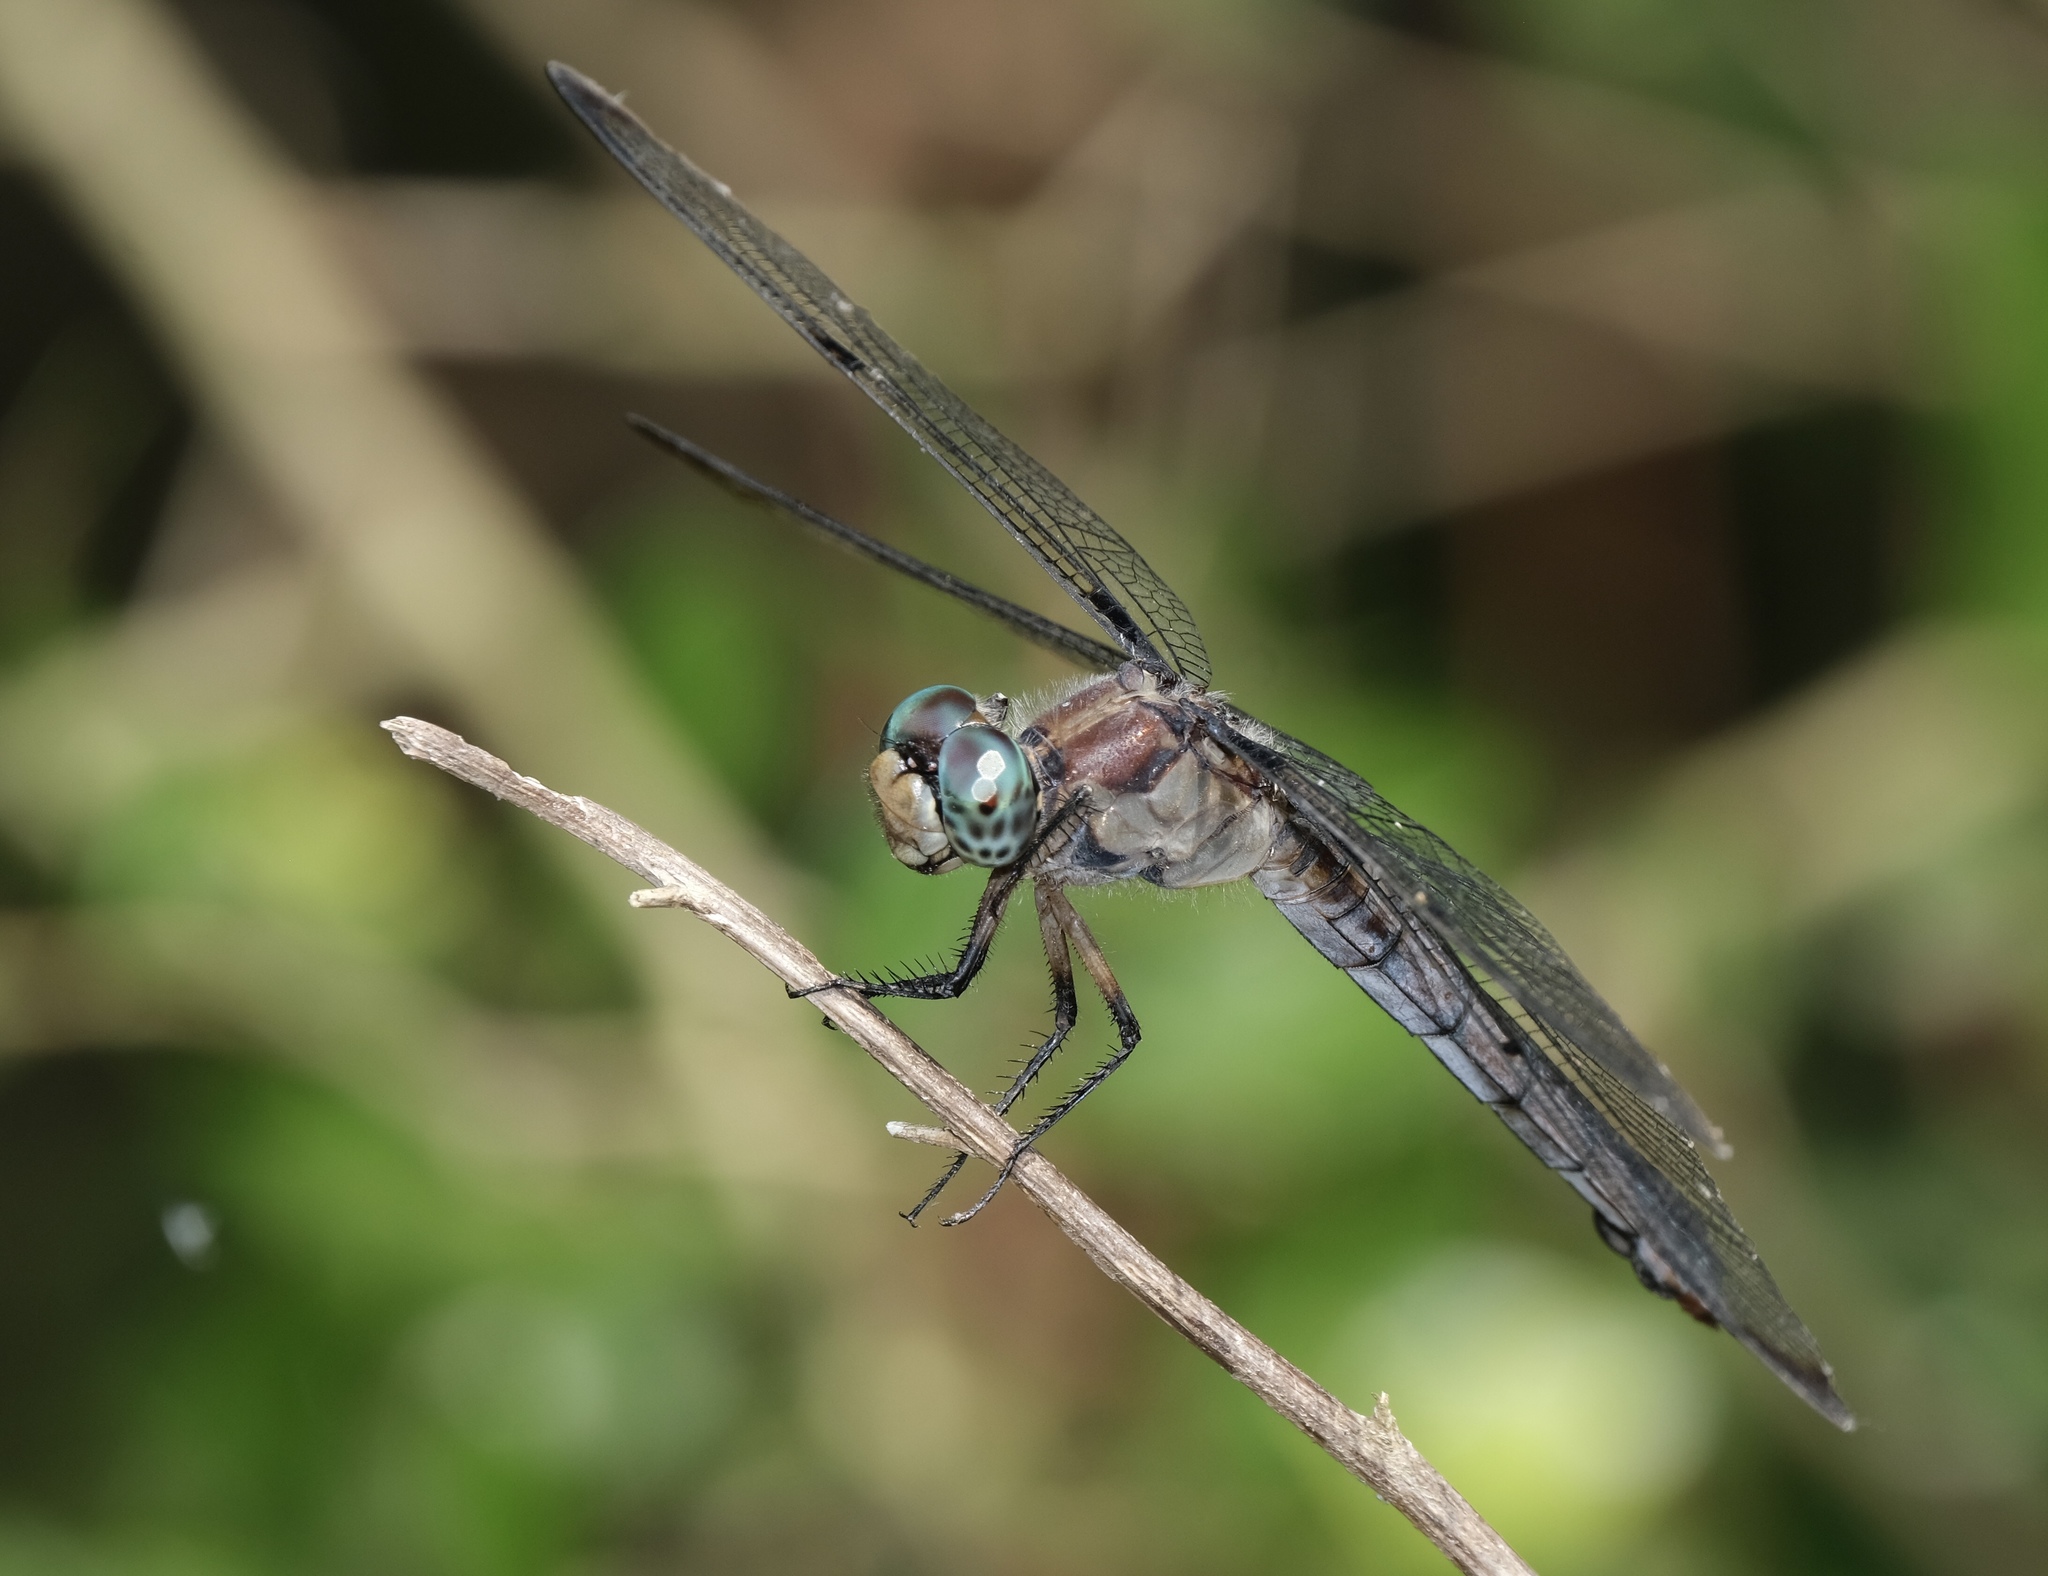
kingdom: Animalia
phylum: Arthropoda
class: Insecta
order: Odonata
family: Libellulidae
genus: Libellula
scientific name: Libellula vibrans
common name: Great blue skimmer
